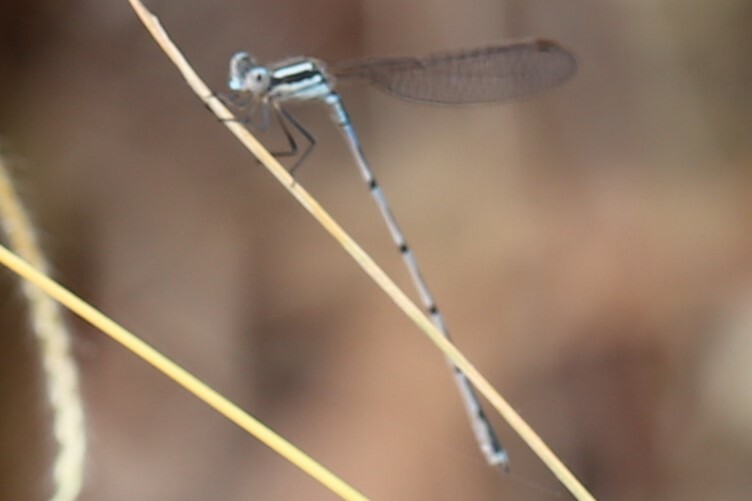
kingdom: Animalia
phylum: Arthropoda
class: Insecta
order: Odonata
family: Lestidae
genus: Austrolestes
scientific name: Austrolestes leda
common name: Wandering ringtail
